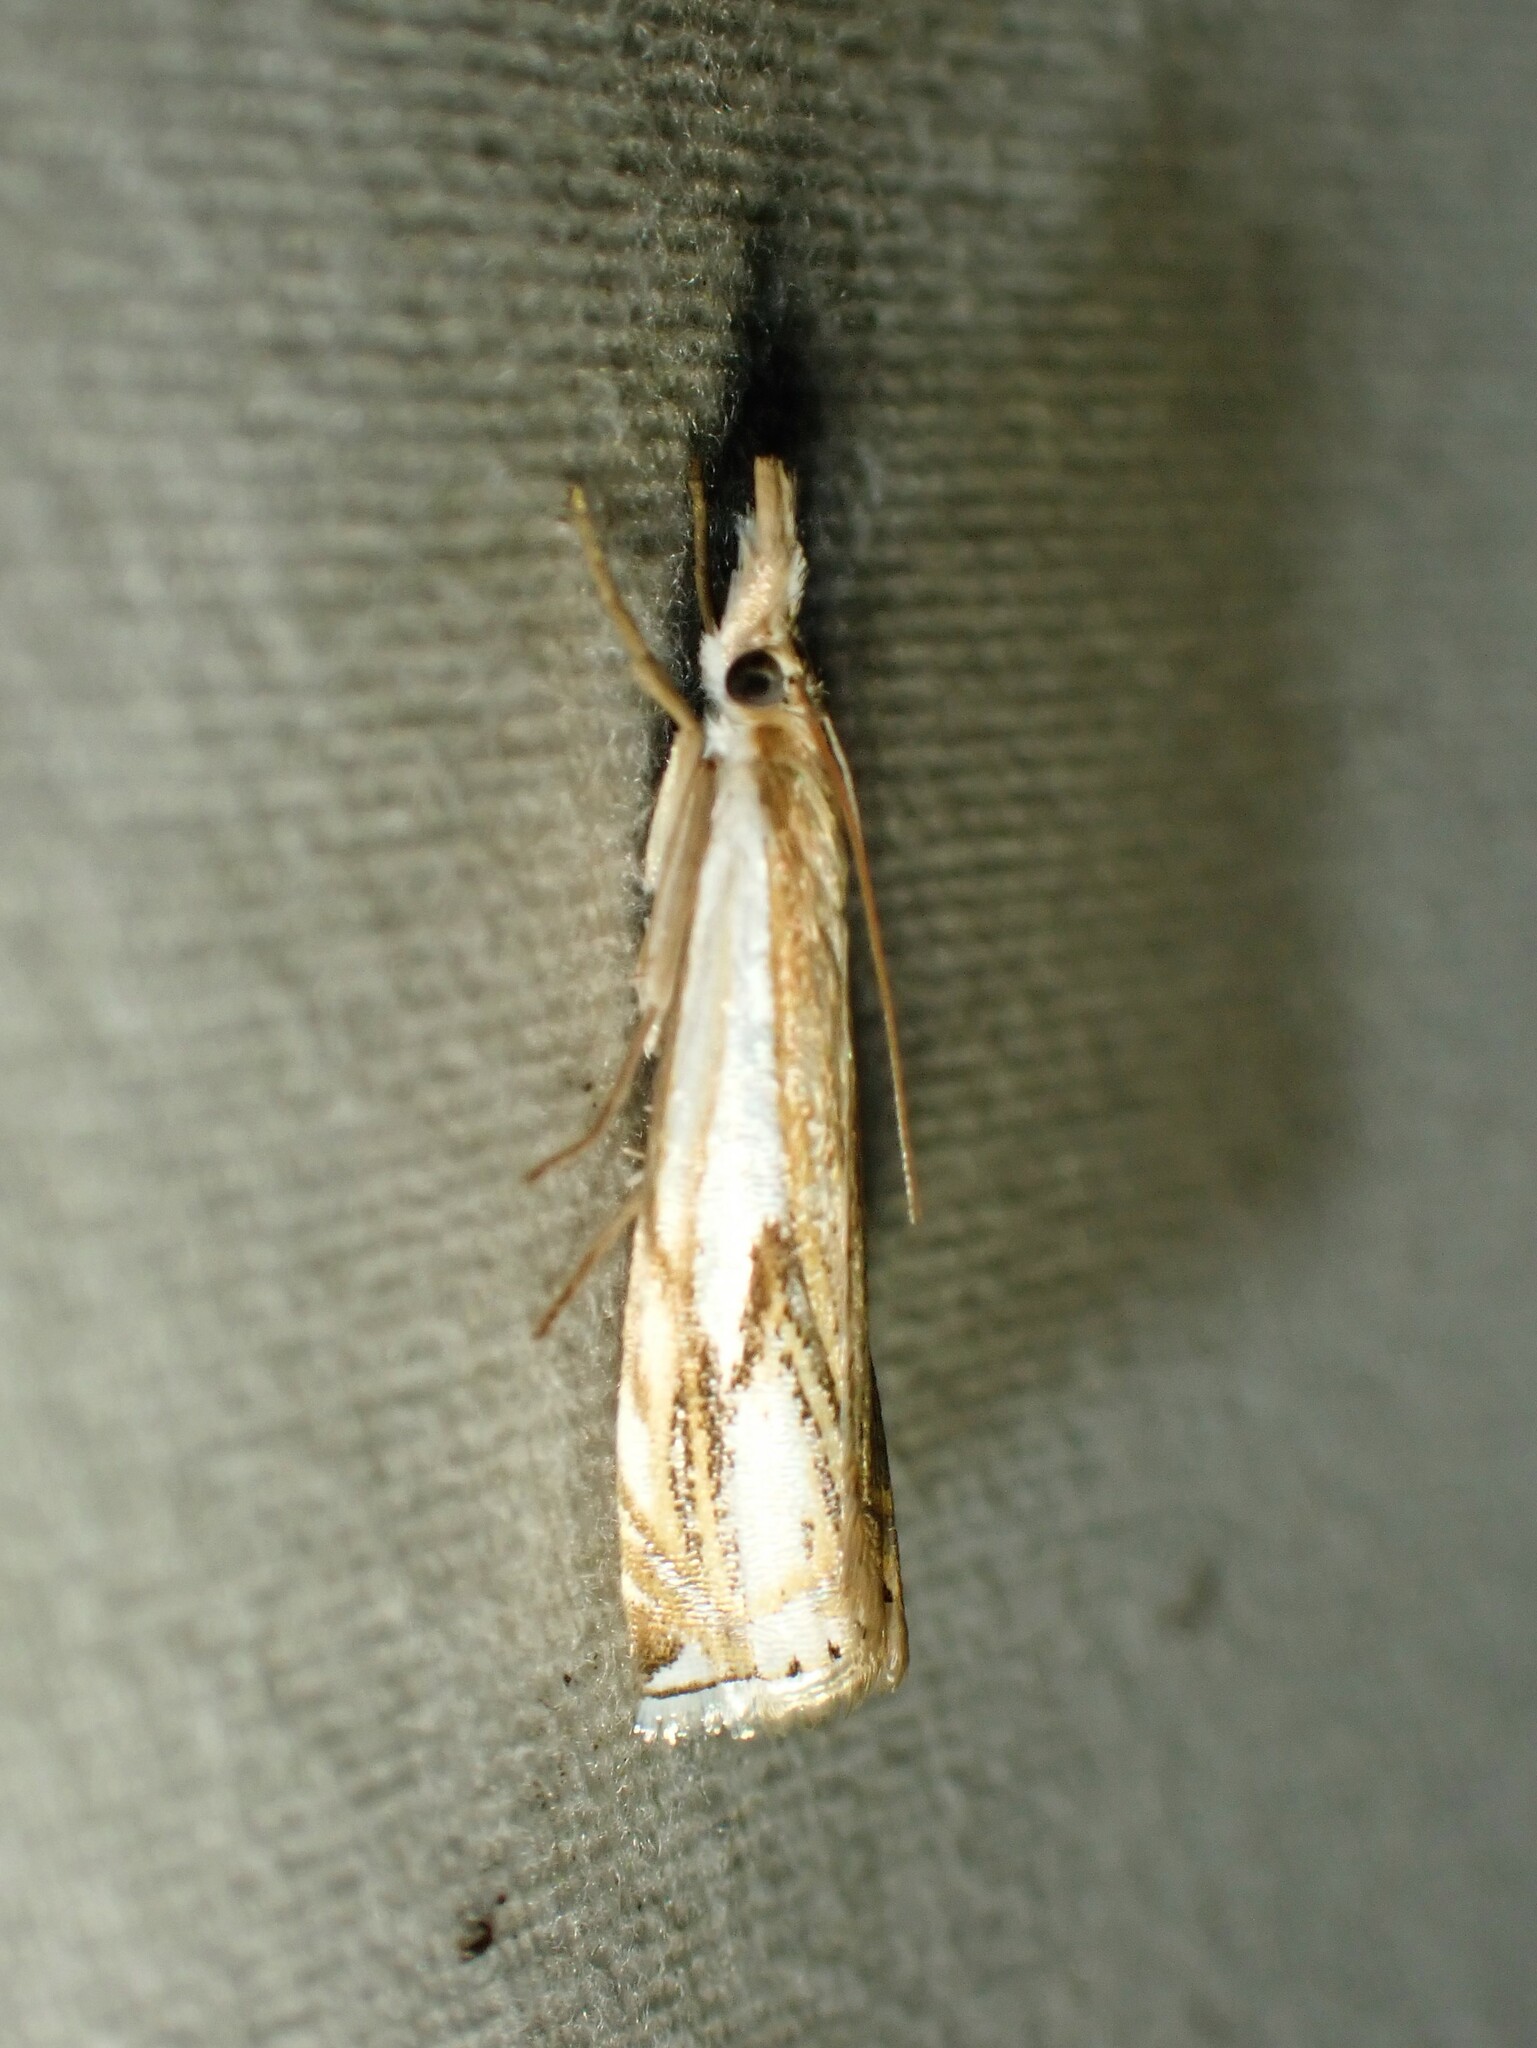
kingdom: Animalia
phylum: Arthropoda
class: Insecta
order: Lepidoptera
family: Crambidae
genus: Crambus
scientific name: Crambus agitatellus
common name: Double-banded grass-veneer
